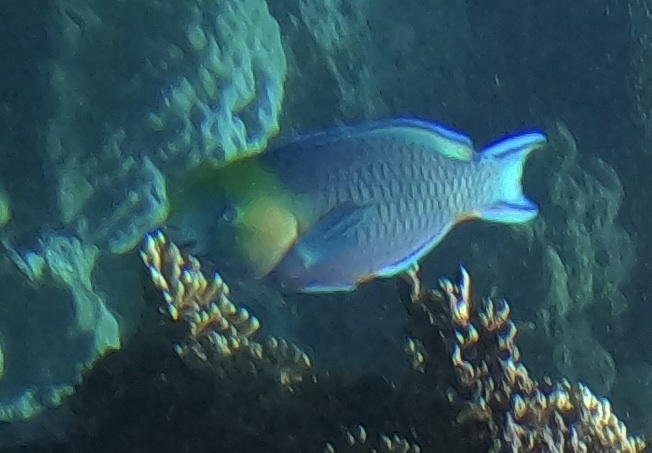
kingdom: Animalia
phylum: Chordata
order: Perciformes
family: Scaridae
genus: Scarus
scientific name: Scarus spinus
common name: Greensnout parrotfish
